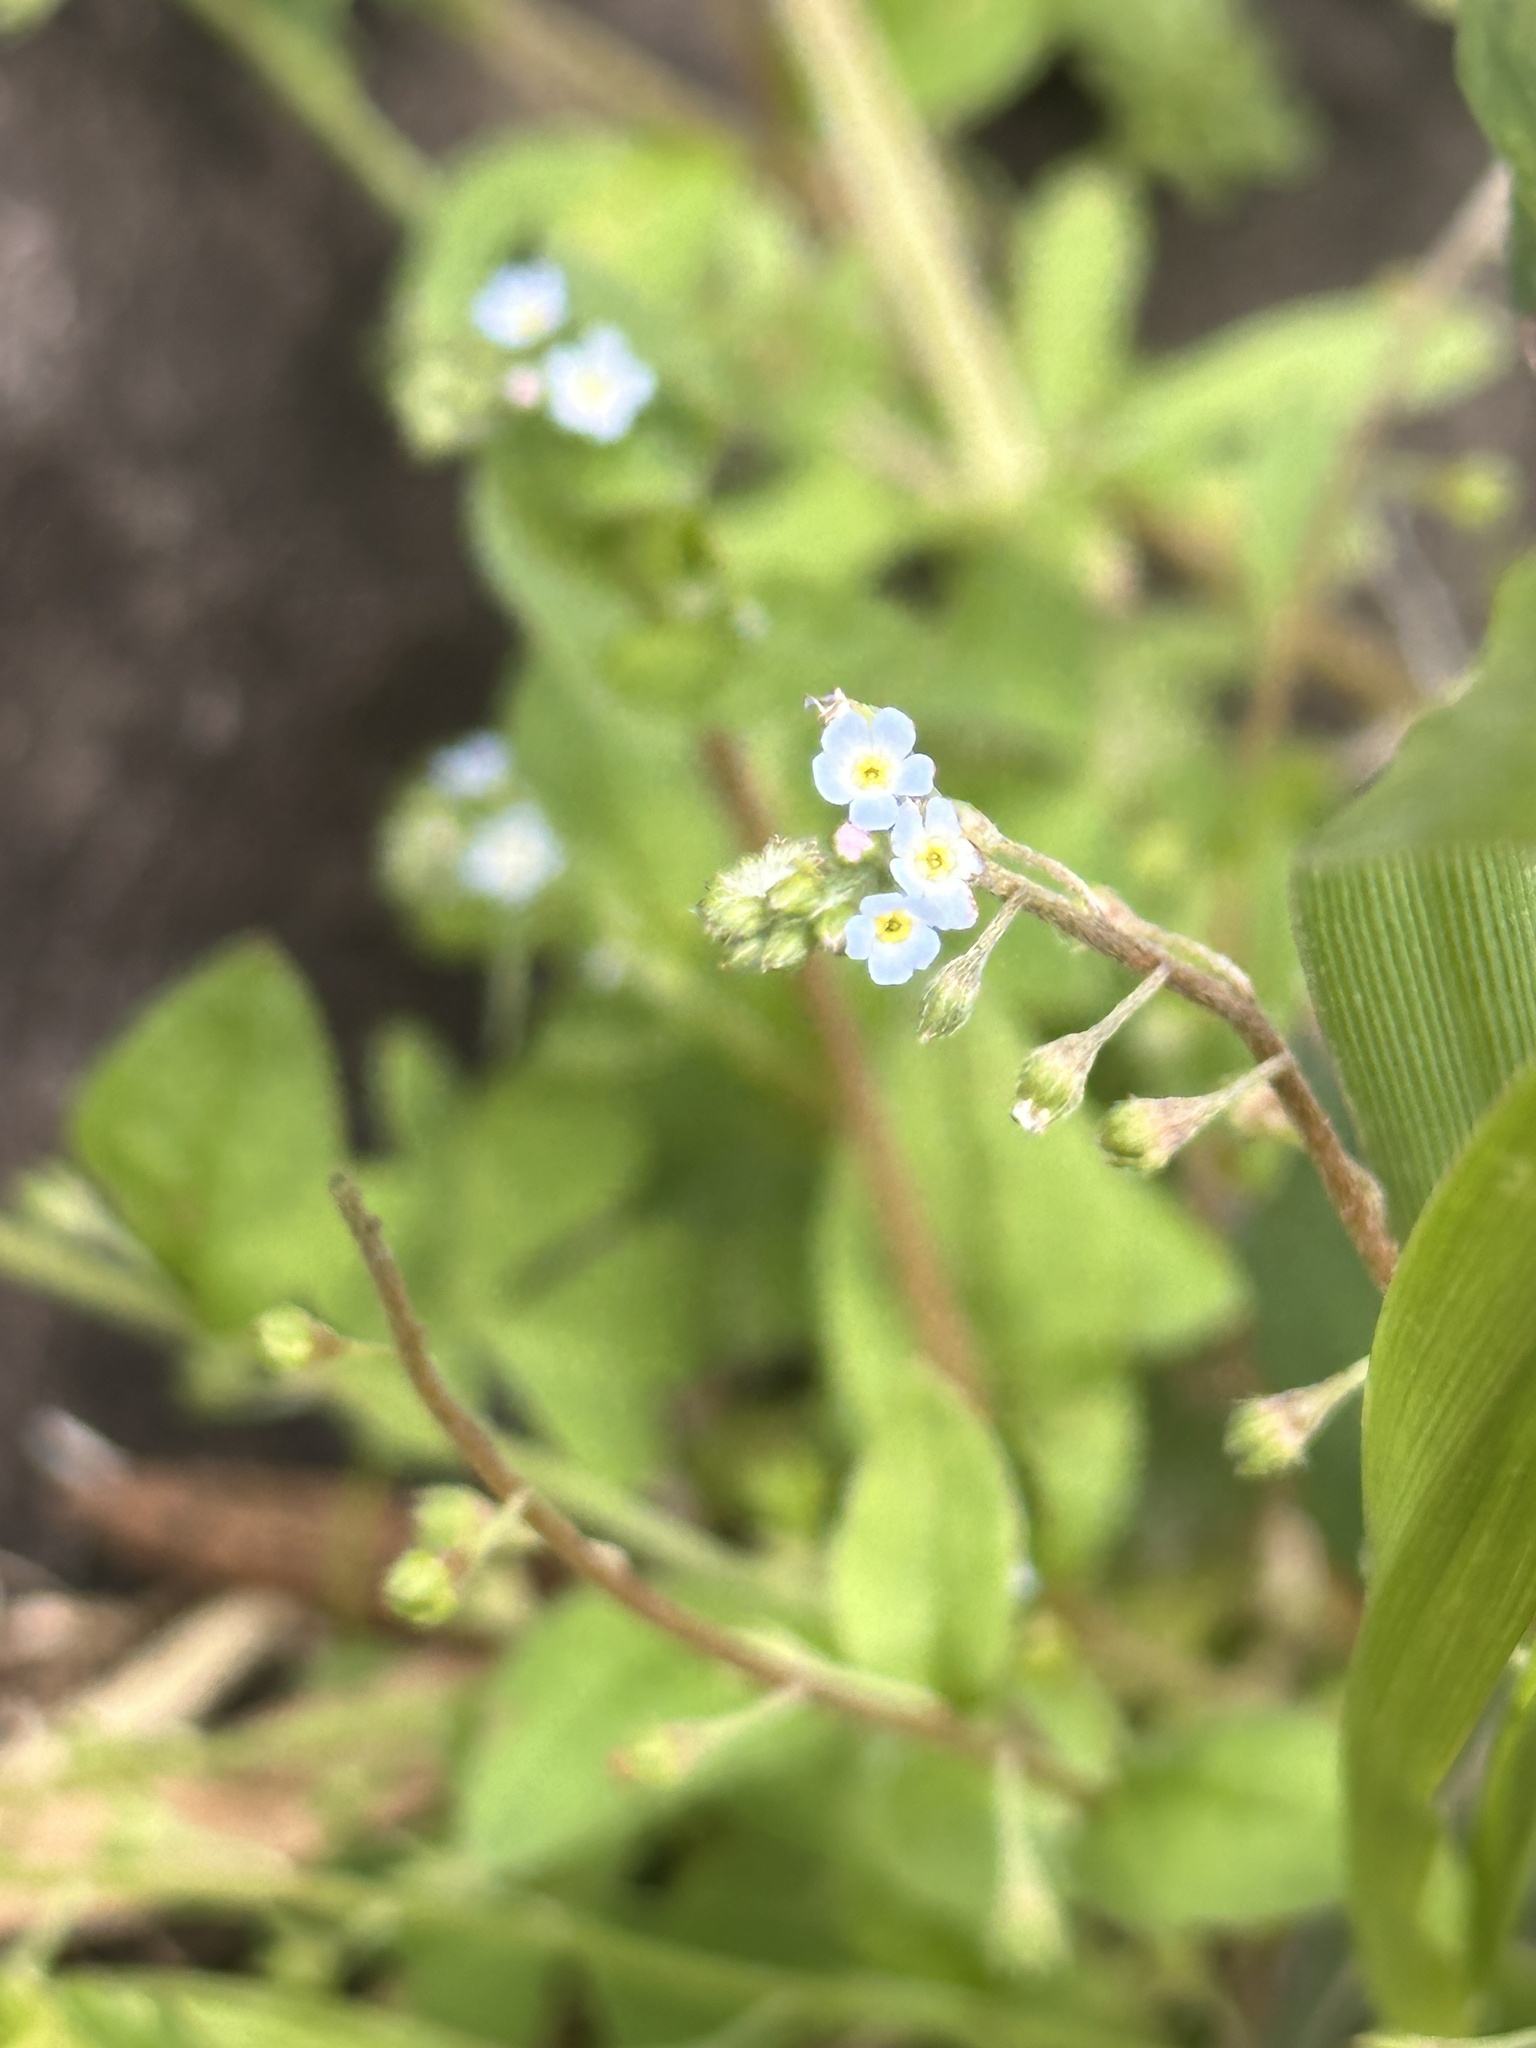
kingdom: Plantae
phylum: Tracheophyta
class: Magnoliopsida
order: Boraginales
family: Boraginaceae
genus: Trigonotis
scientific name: Trigonotis peduncularis
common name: Cucumber herb
